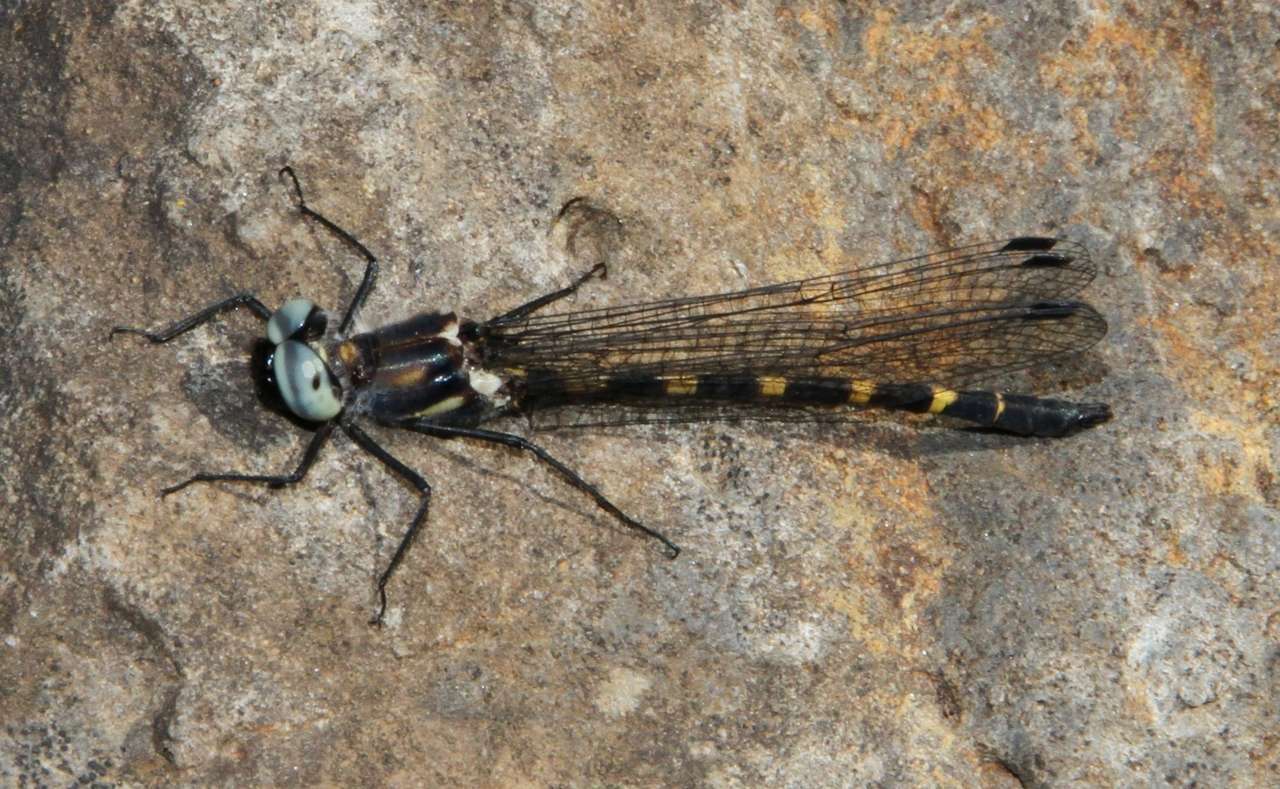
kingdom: Animalia
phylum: Arthropoda
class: Insecta
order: Odonata
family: Corduliidae
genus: Cordulephya
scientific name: Cordulephya pygmaea
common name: Common shutwing
